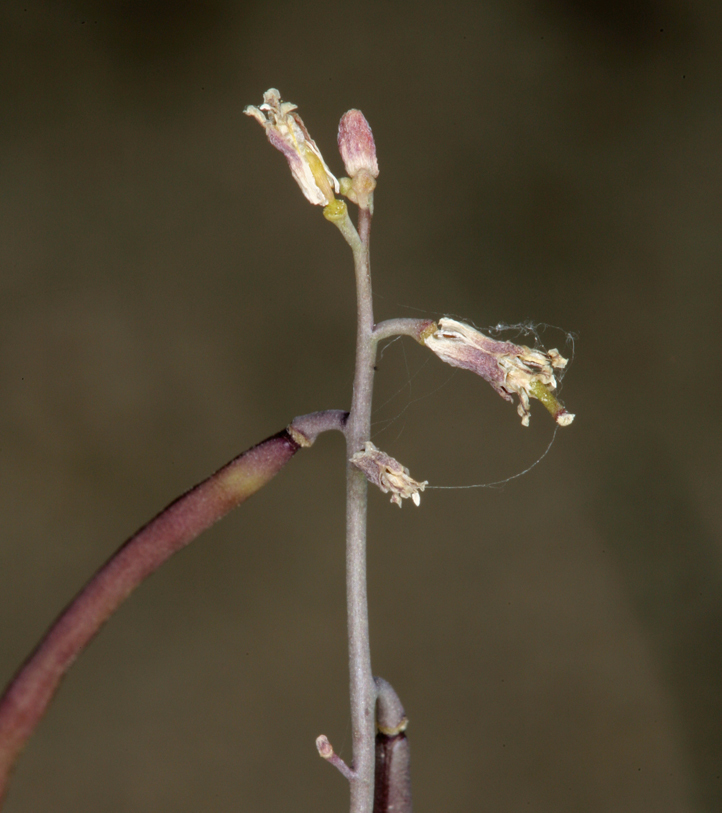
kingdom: Plantae
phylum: Tracheophyta
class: Magnoliopsida
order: Brassicales
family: Brassicaceae
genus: Streptanthus
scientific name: Streptanthus longirostris
